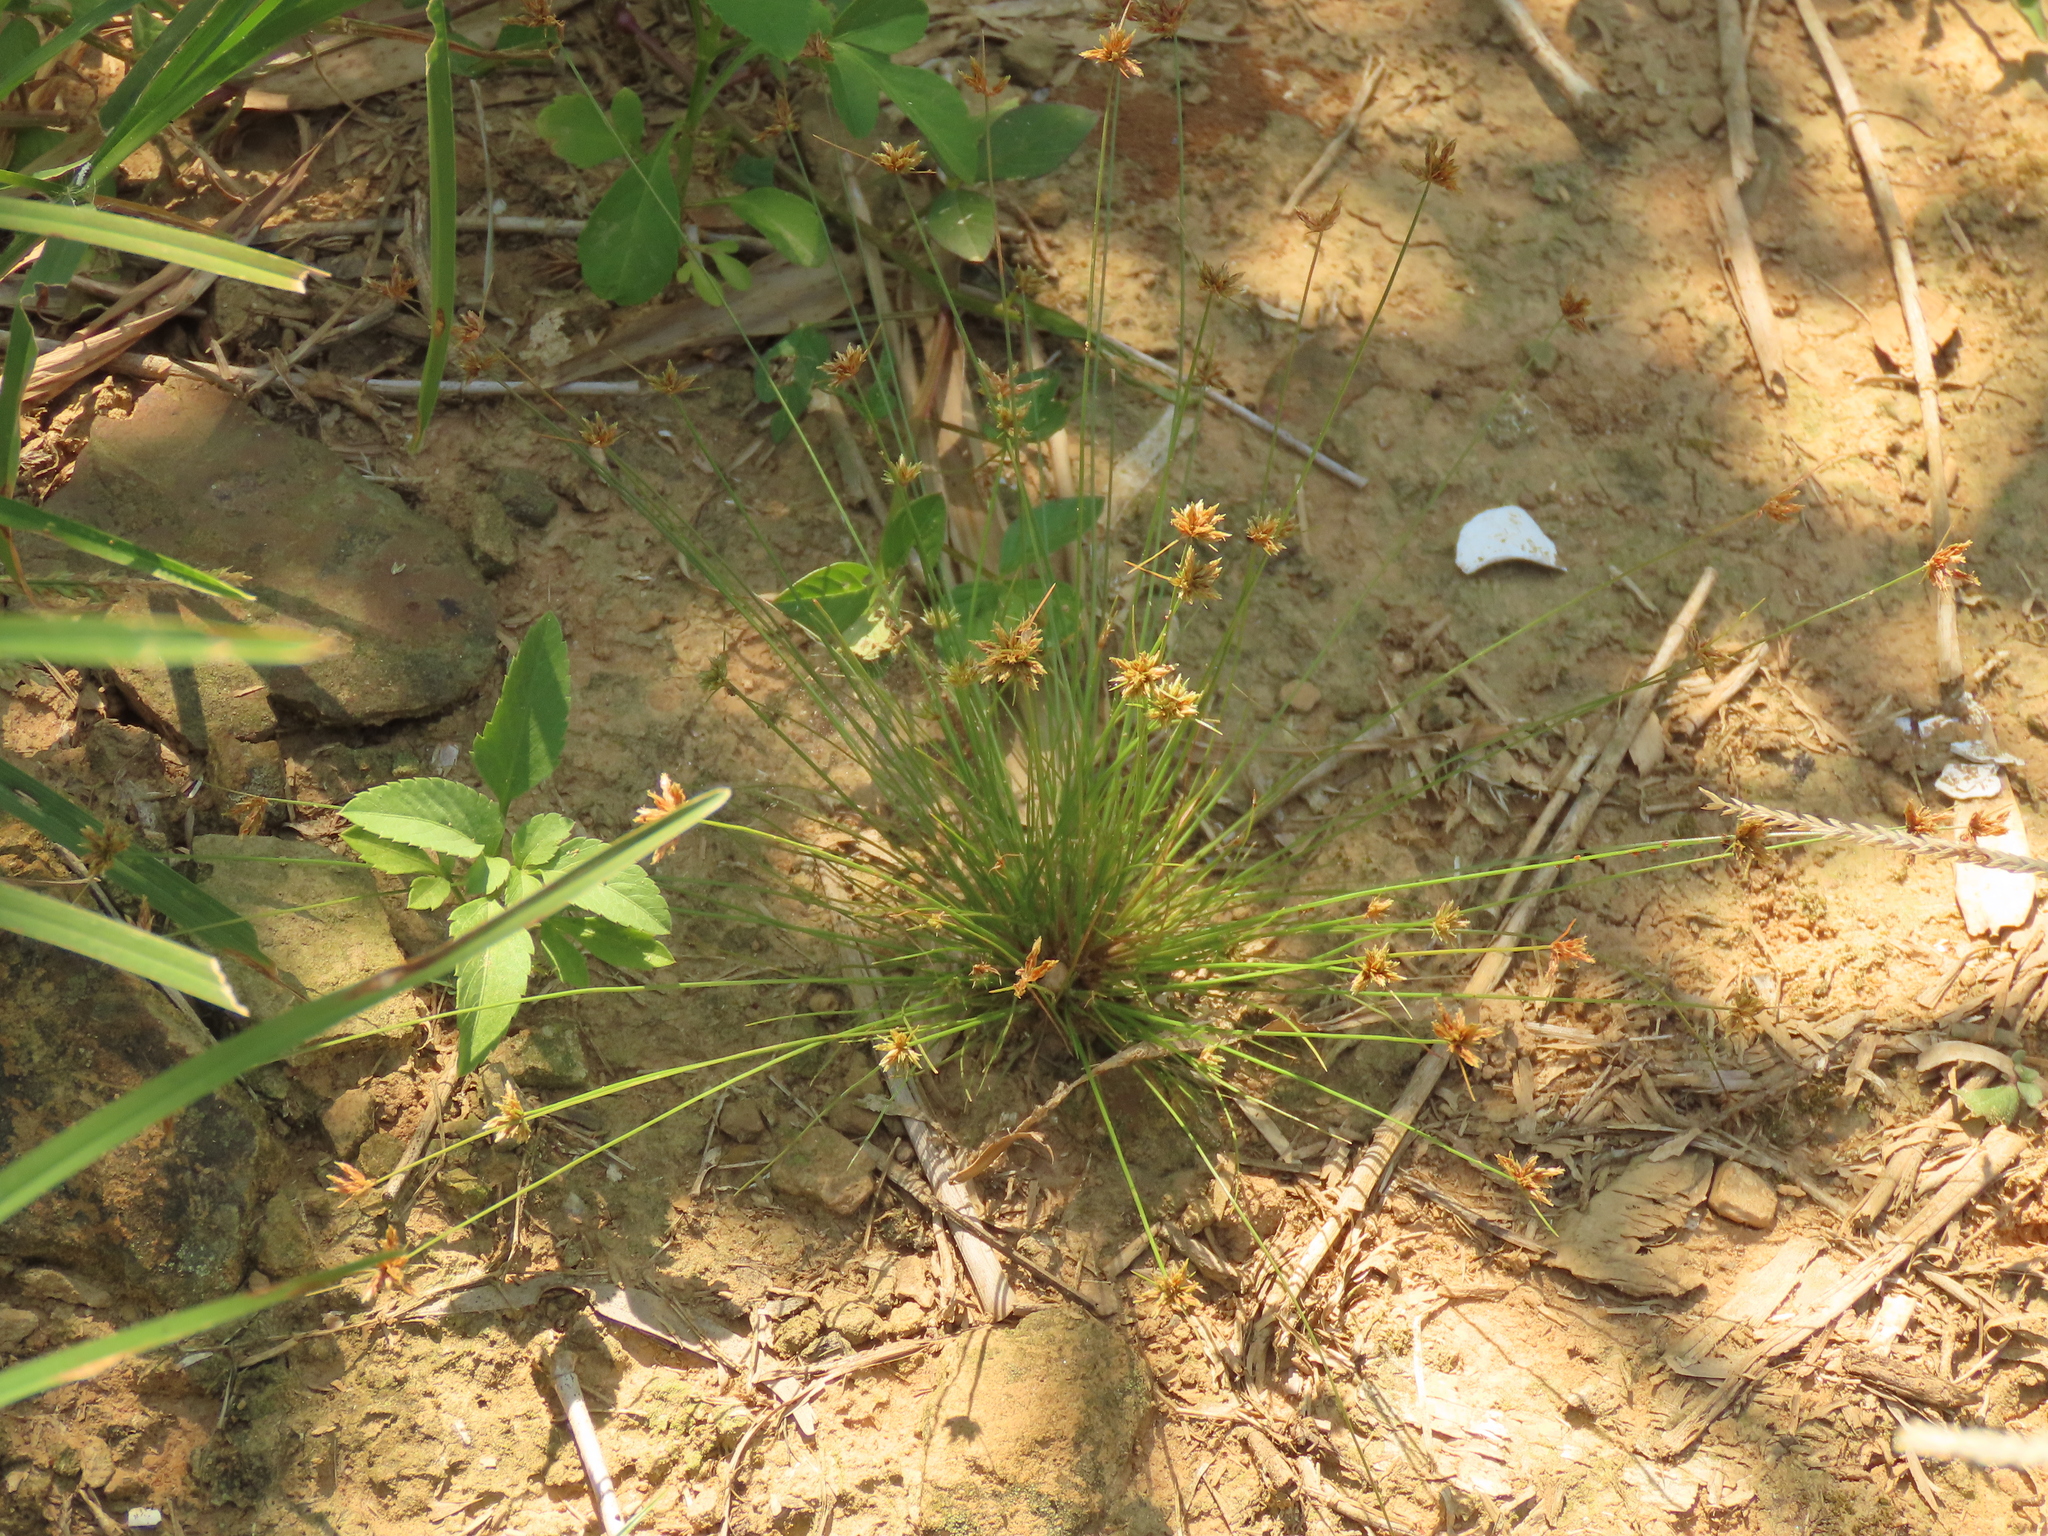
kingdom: Plantae
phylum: Tracheophyta
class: Liliopsida
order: Poales
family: Cyperaceae
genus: Bulbostylis
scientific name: Bulbostylis barbata
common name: Watergrass
